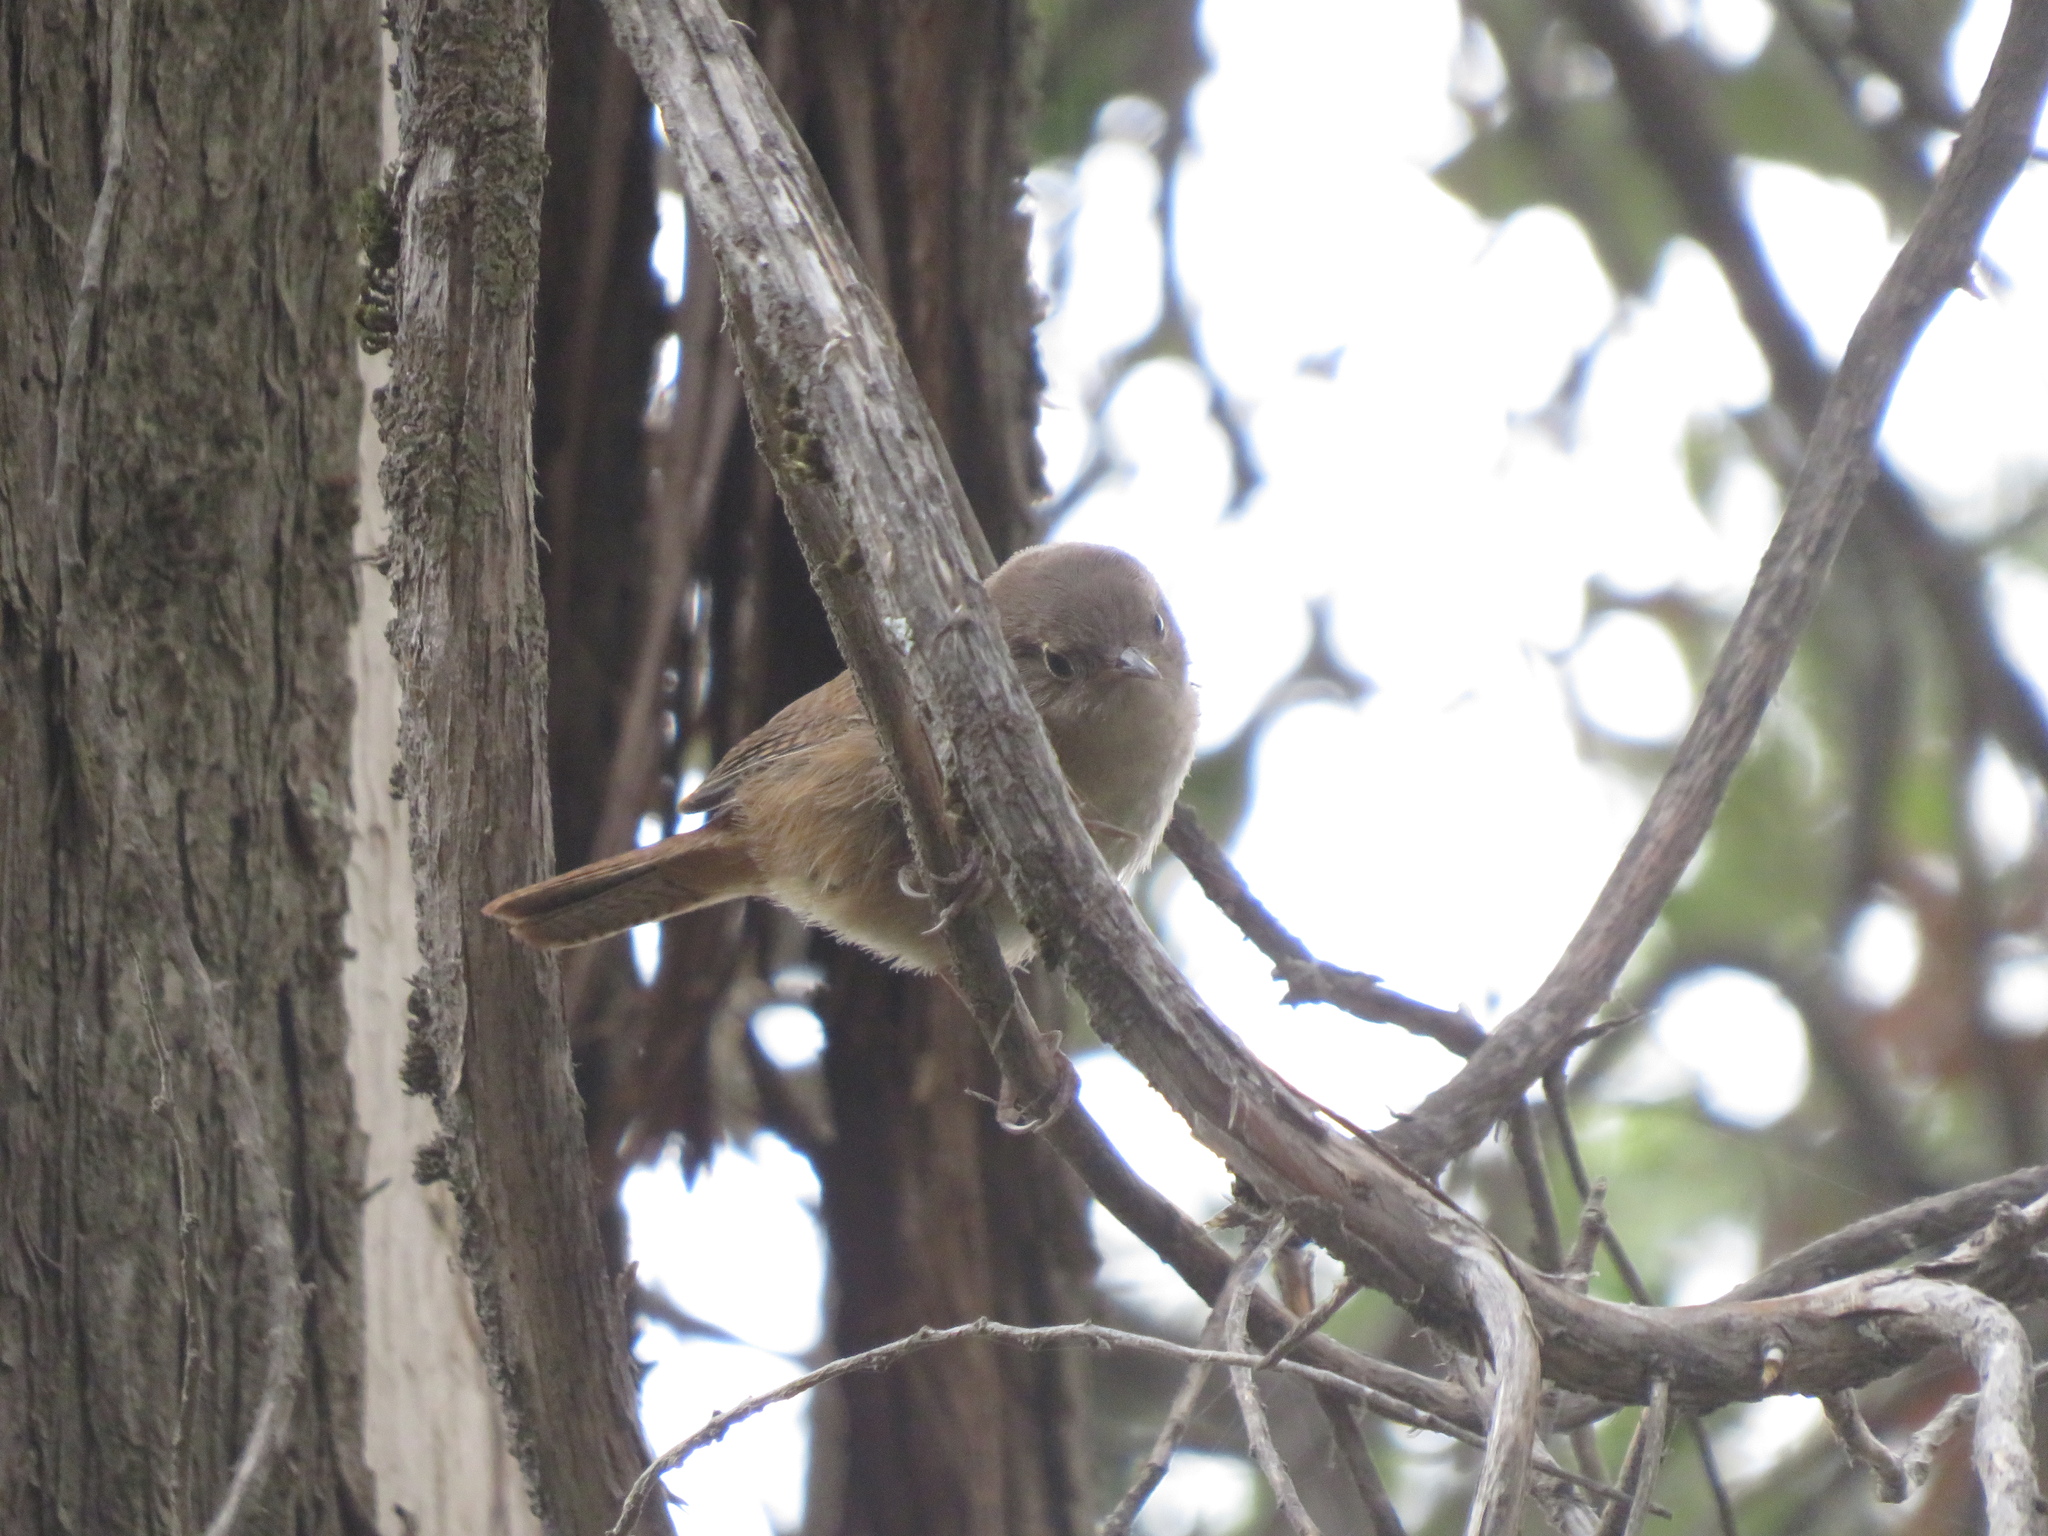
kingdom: Animalia
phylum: Chordata
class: Aves
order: Passeriformes
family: Troglodytidae
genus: Troglodytes
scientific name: Troglodytes aedon
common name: House wren
